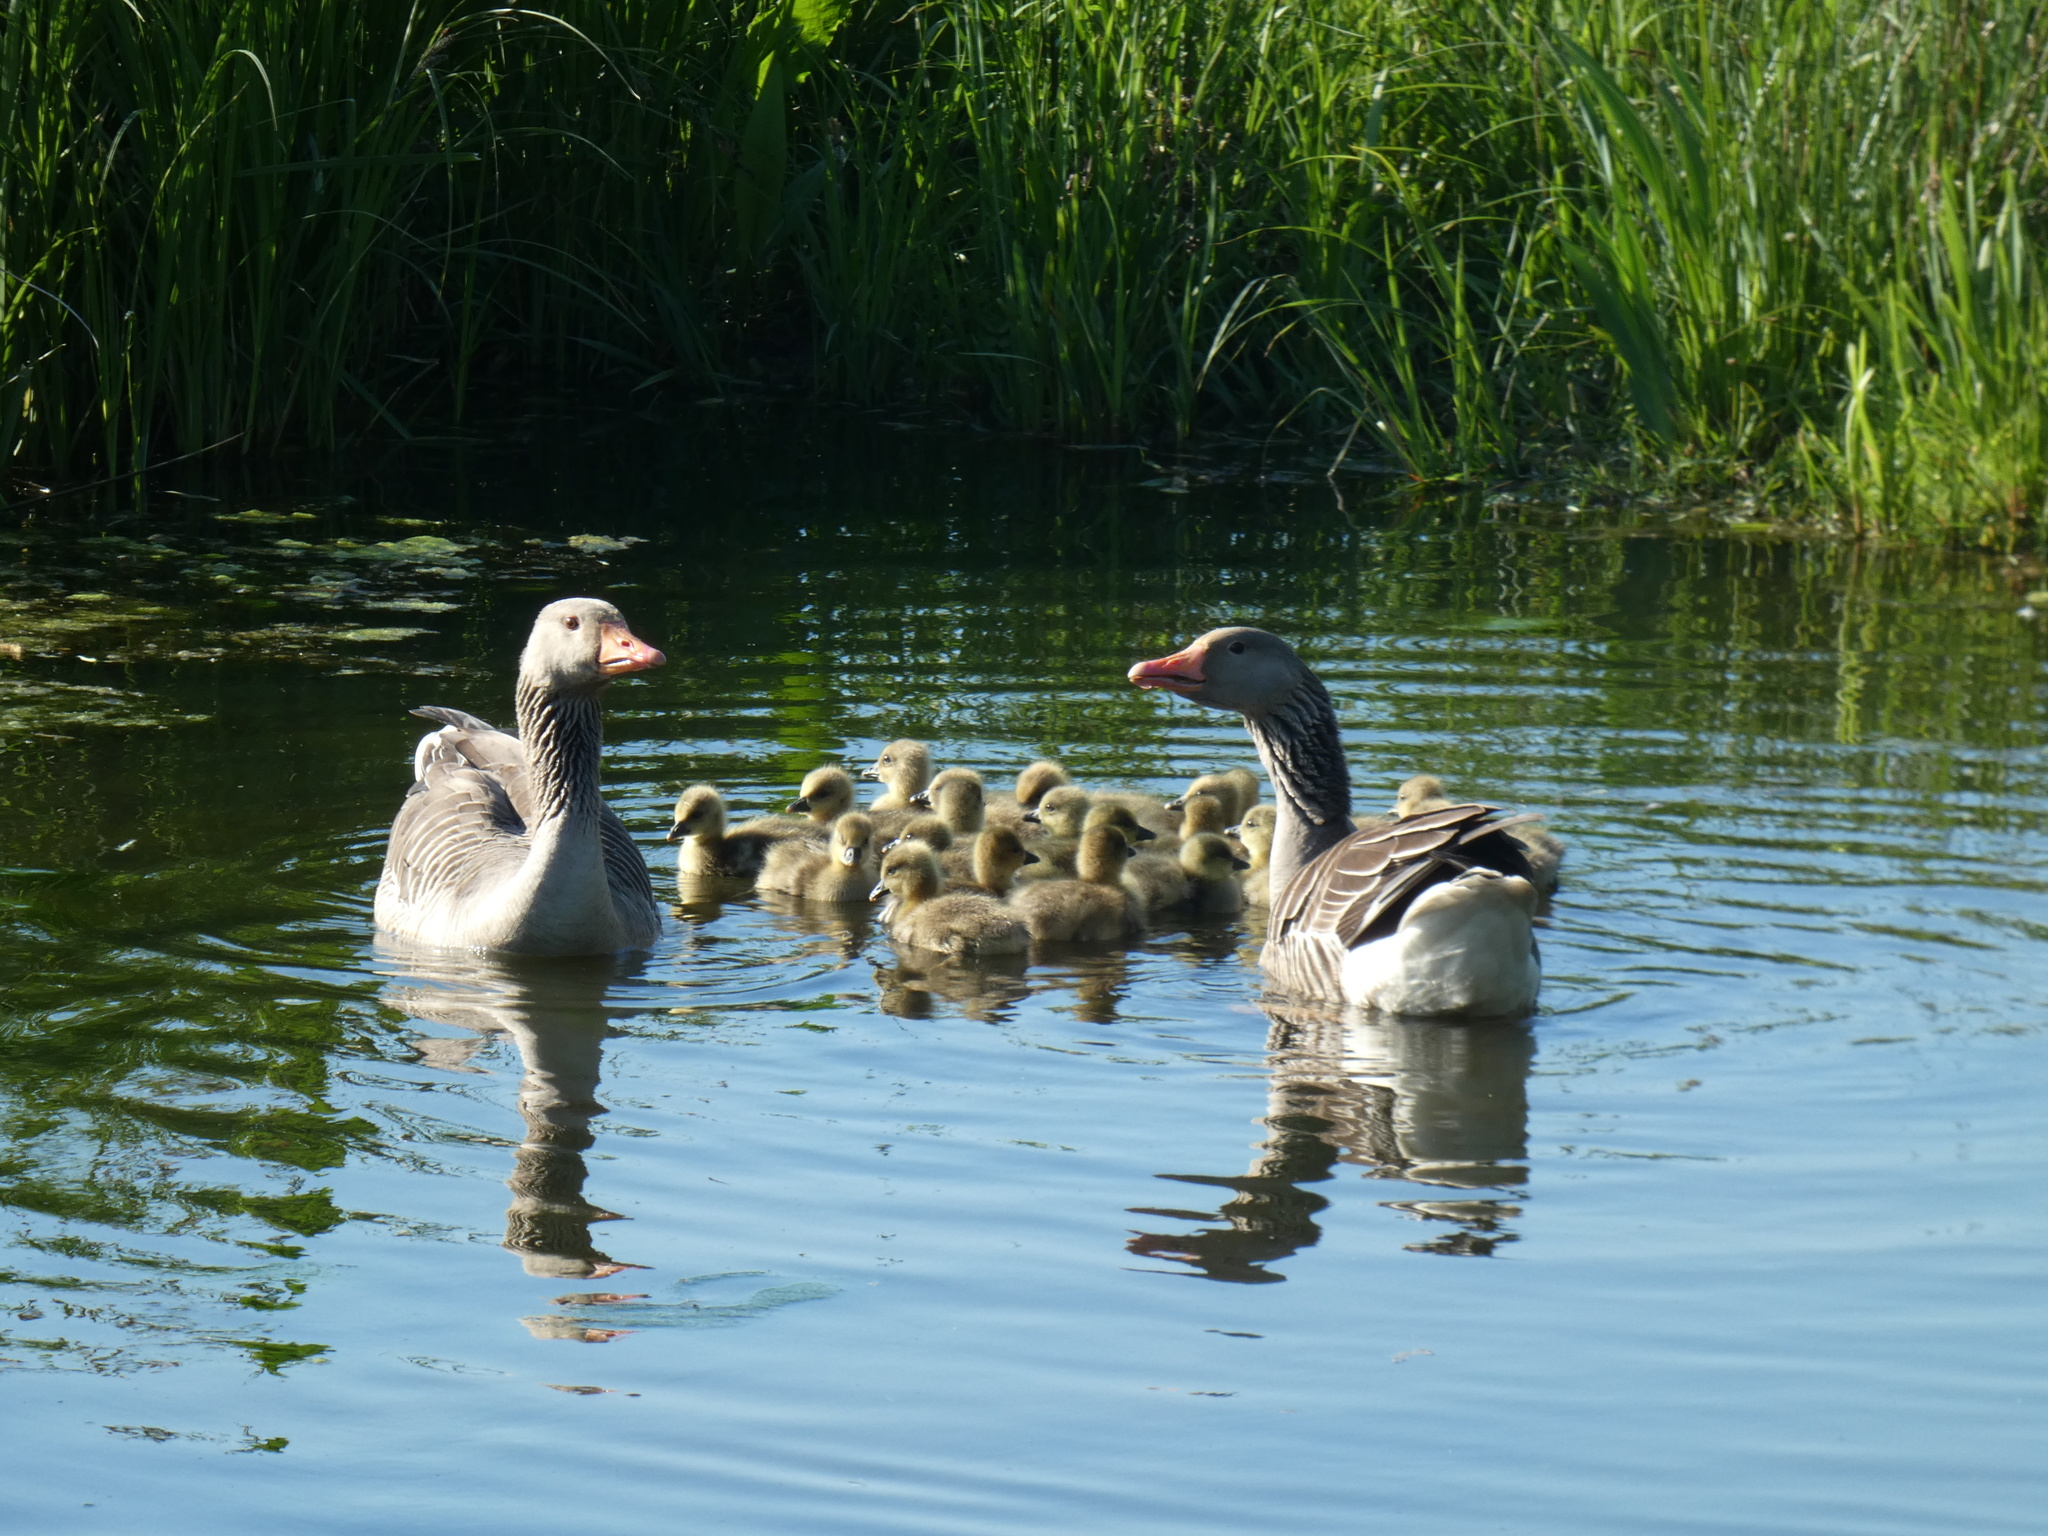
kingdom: Animalia
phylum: Chordata
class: Aves
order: Anseriformes
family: Anatidae
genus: Anser
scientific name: Anser anser
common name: Greylag goose
